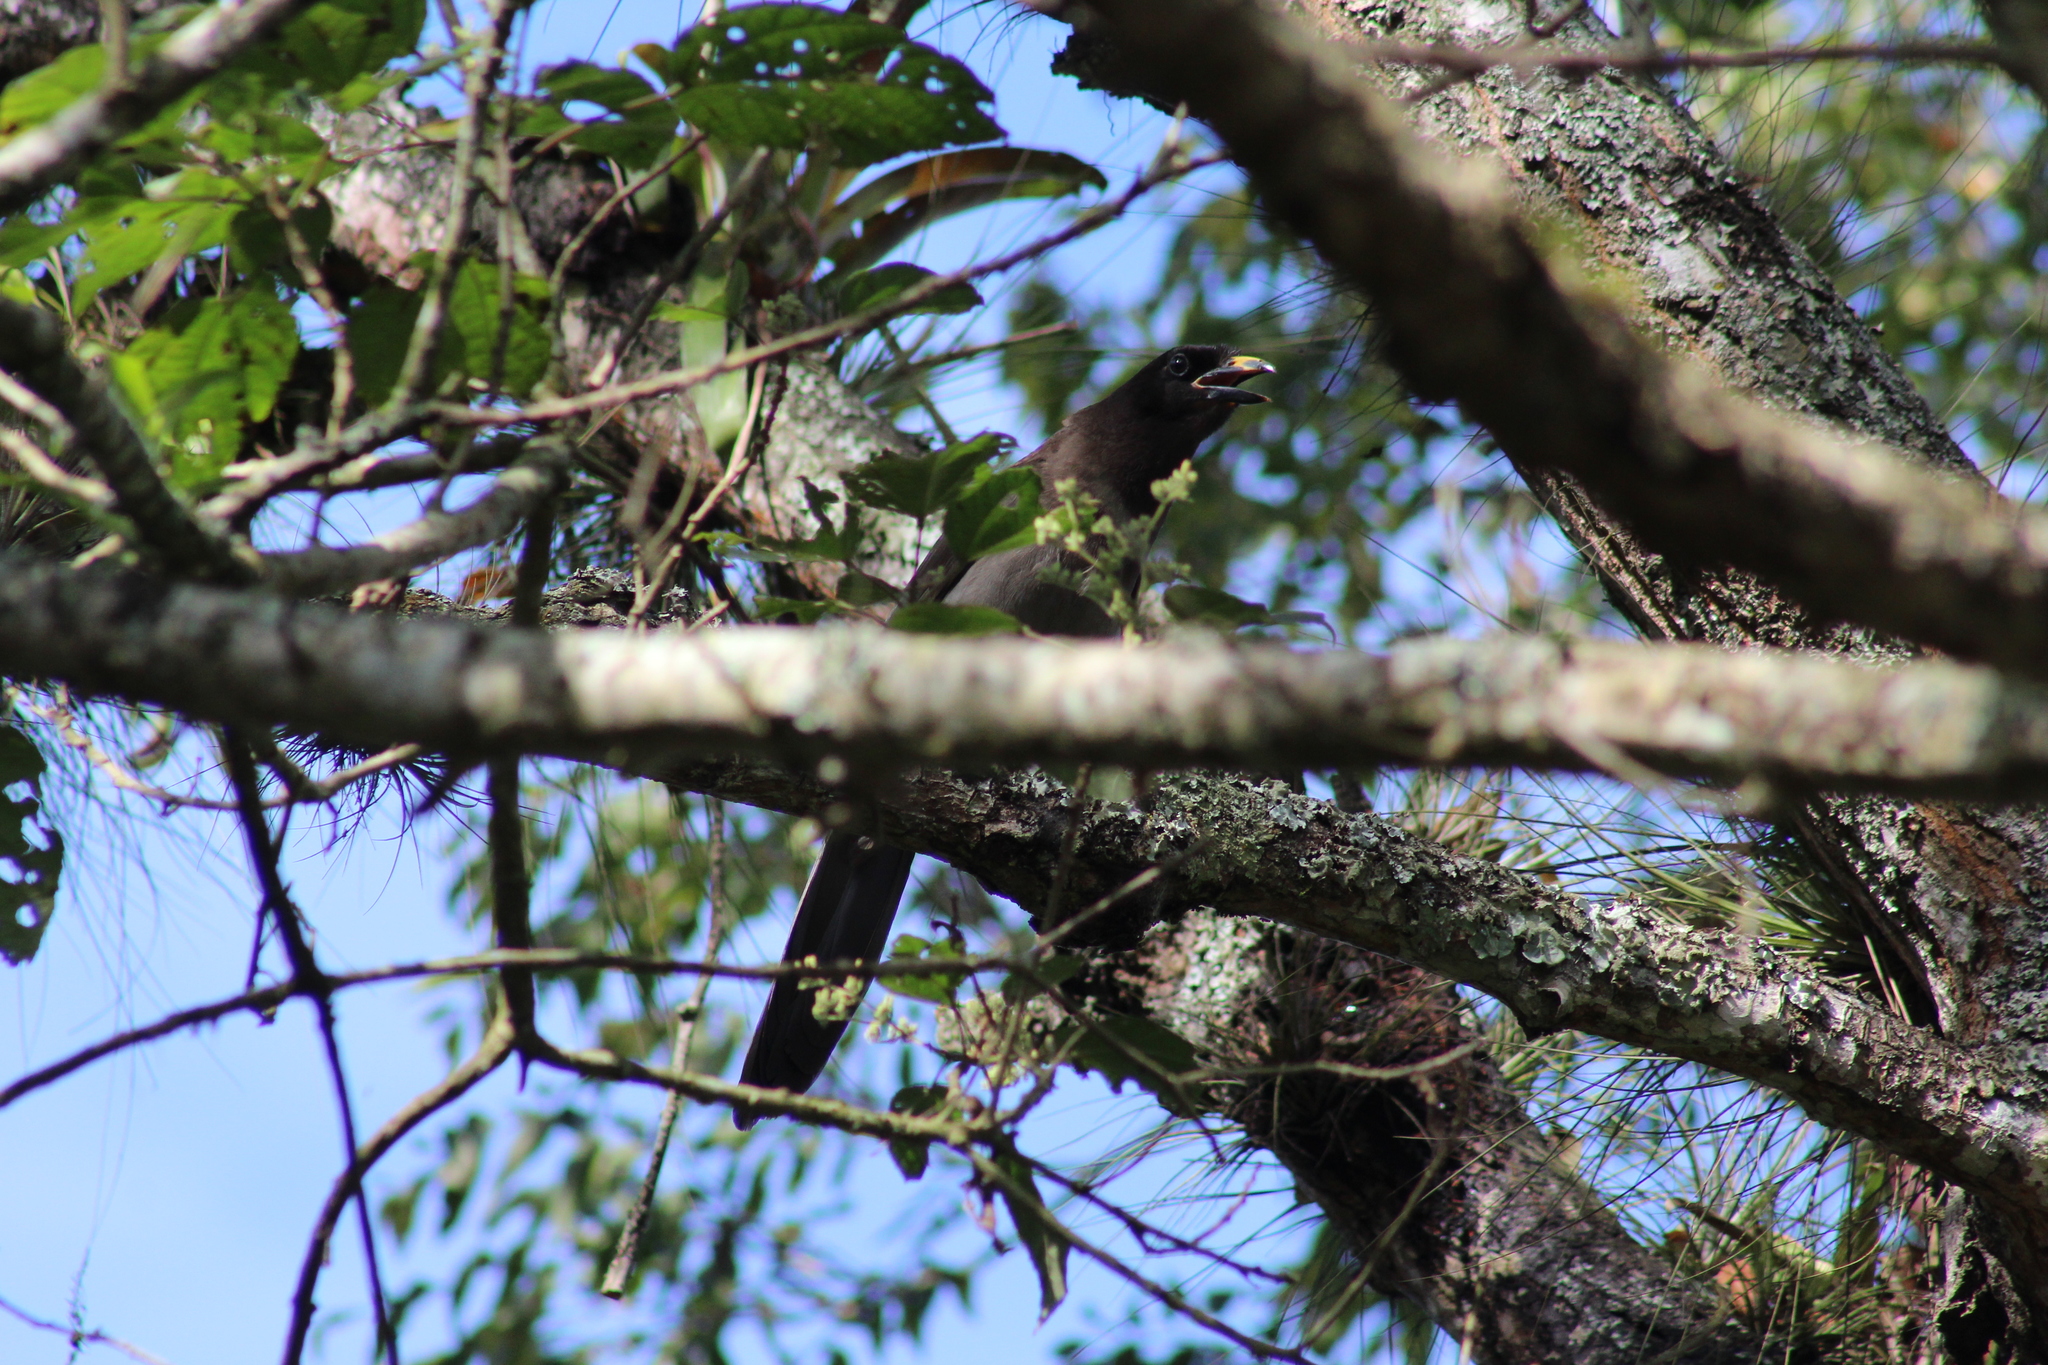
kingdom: Animalia
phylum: Chordata
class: Aves
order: Passeriformes
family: Corvidae
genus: Psilorhinus
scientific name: Psilorhinus morio
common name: Brown jay
